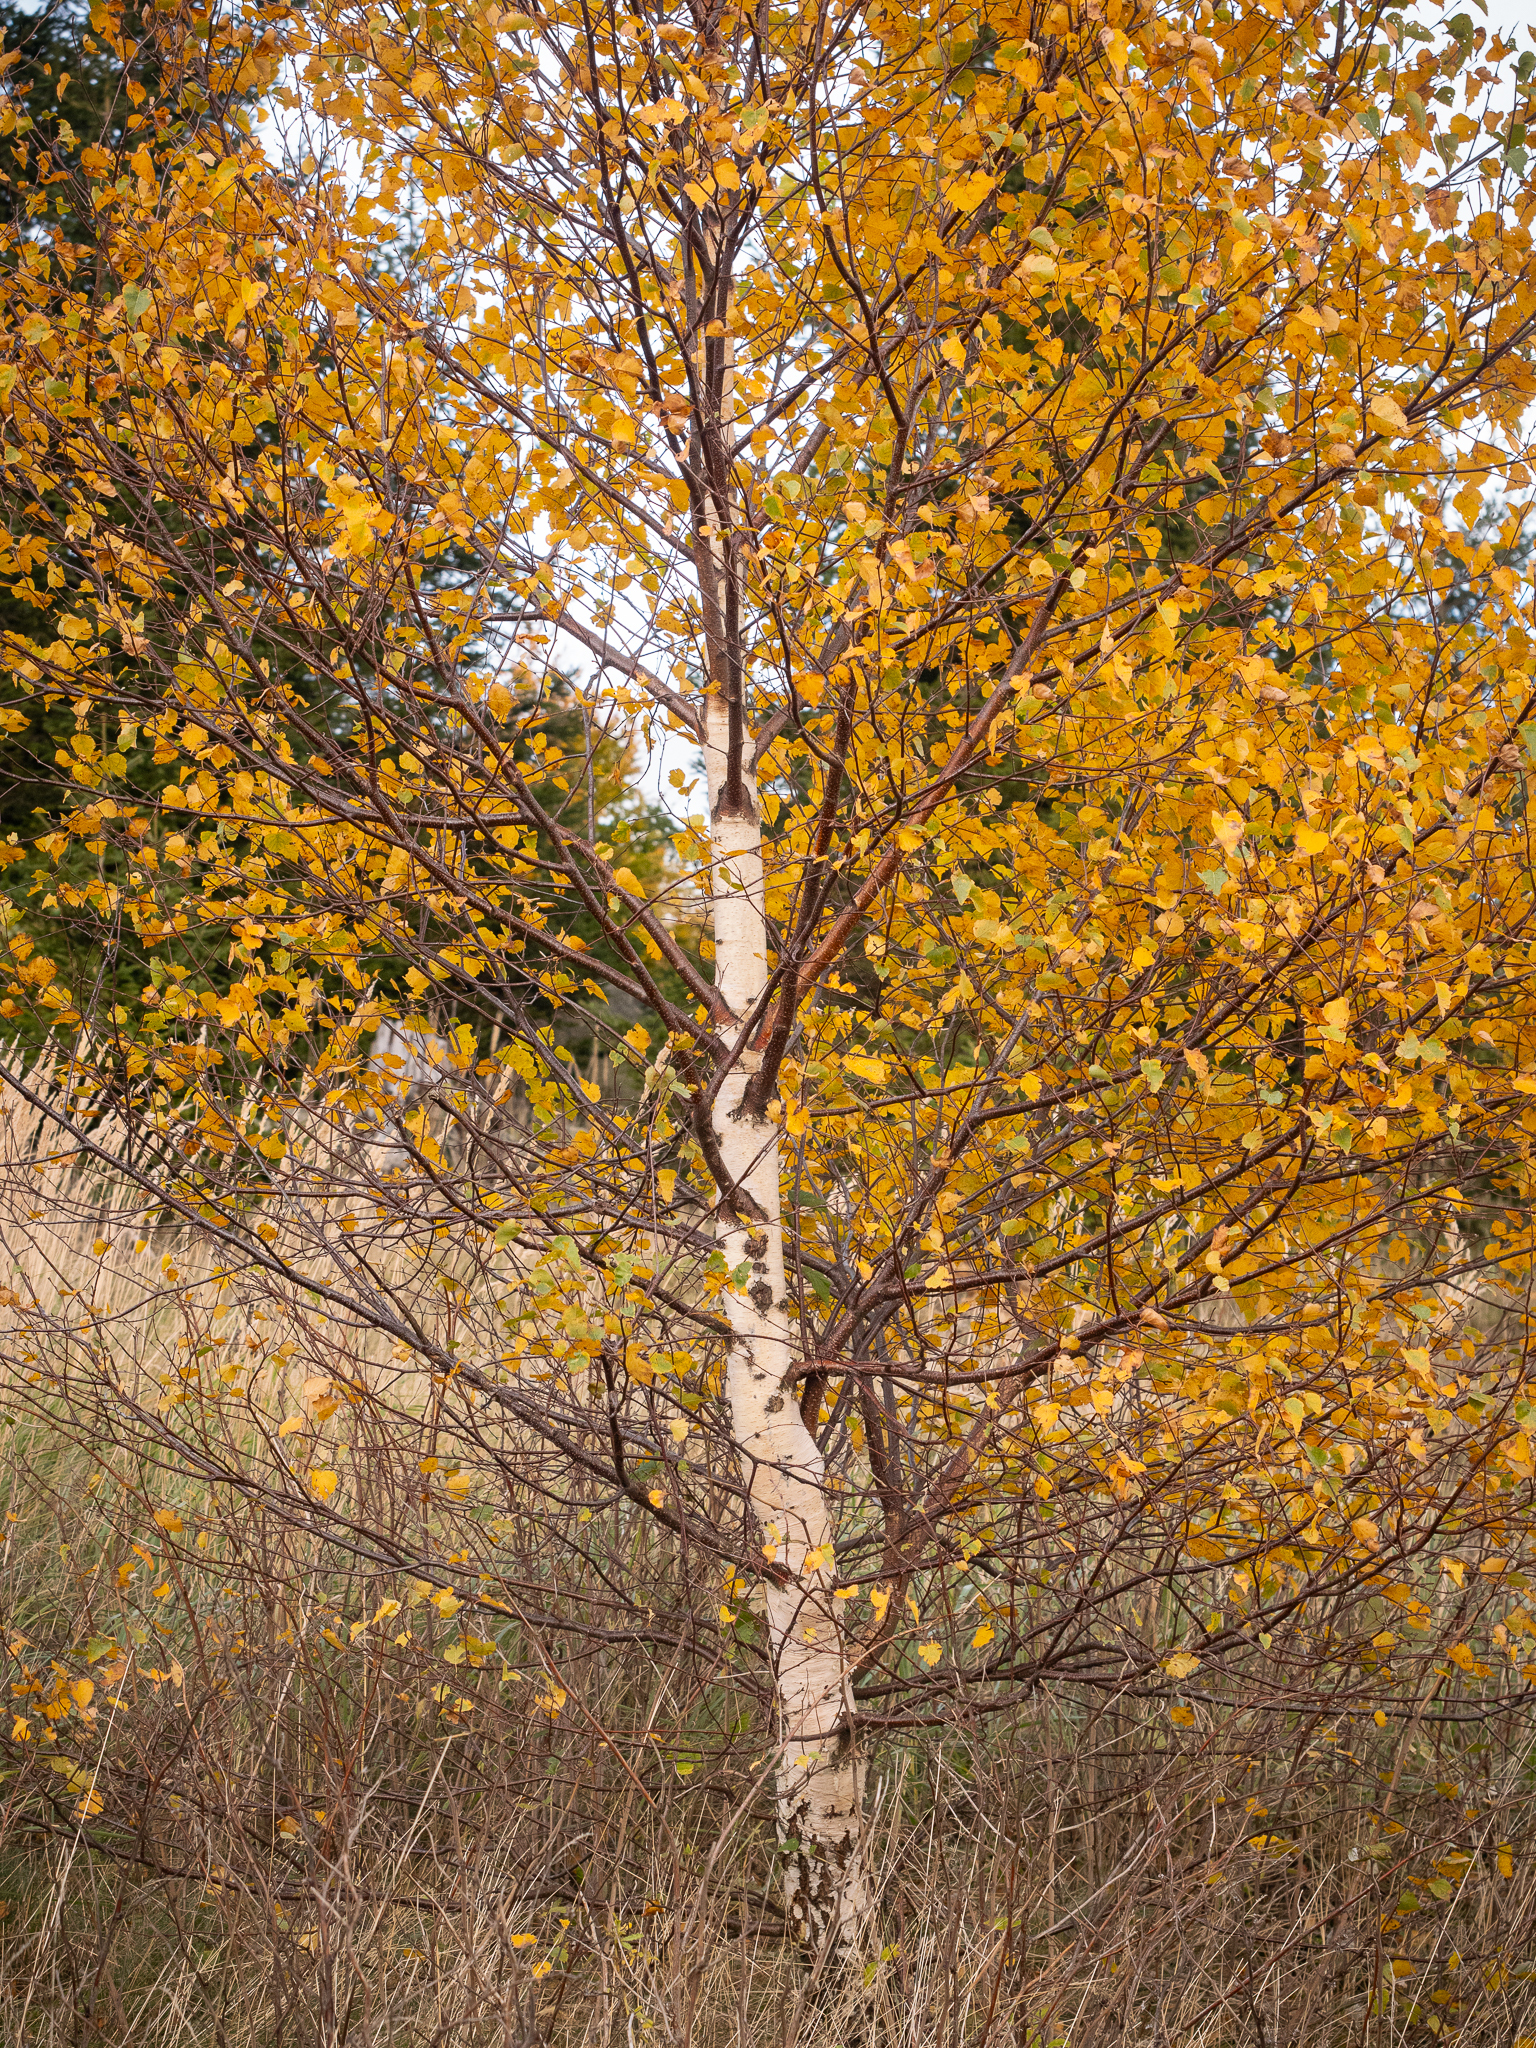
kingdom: Plantae
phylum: Tracheophyta
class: Magnoliopsida
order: Fagales
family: Betulaceae
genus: Betula
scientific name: Betula pendula
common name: Silver birch
